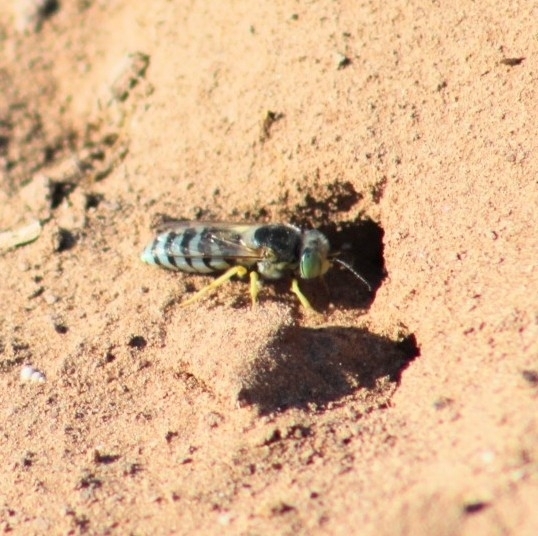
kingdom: Animalia
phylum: Arthropoda
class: Insecta
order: Hymenoptera
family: Crabronidae
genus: Bembix
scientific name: Bembix americana
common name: American sand wasp
